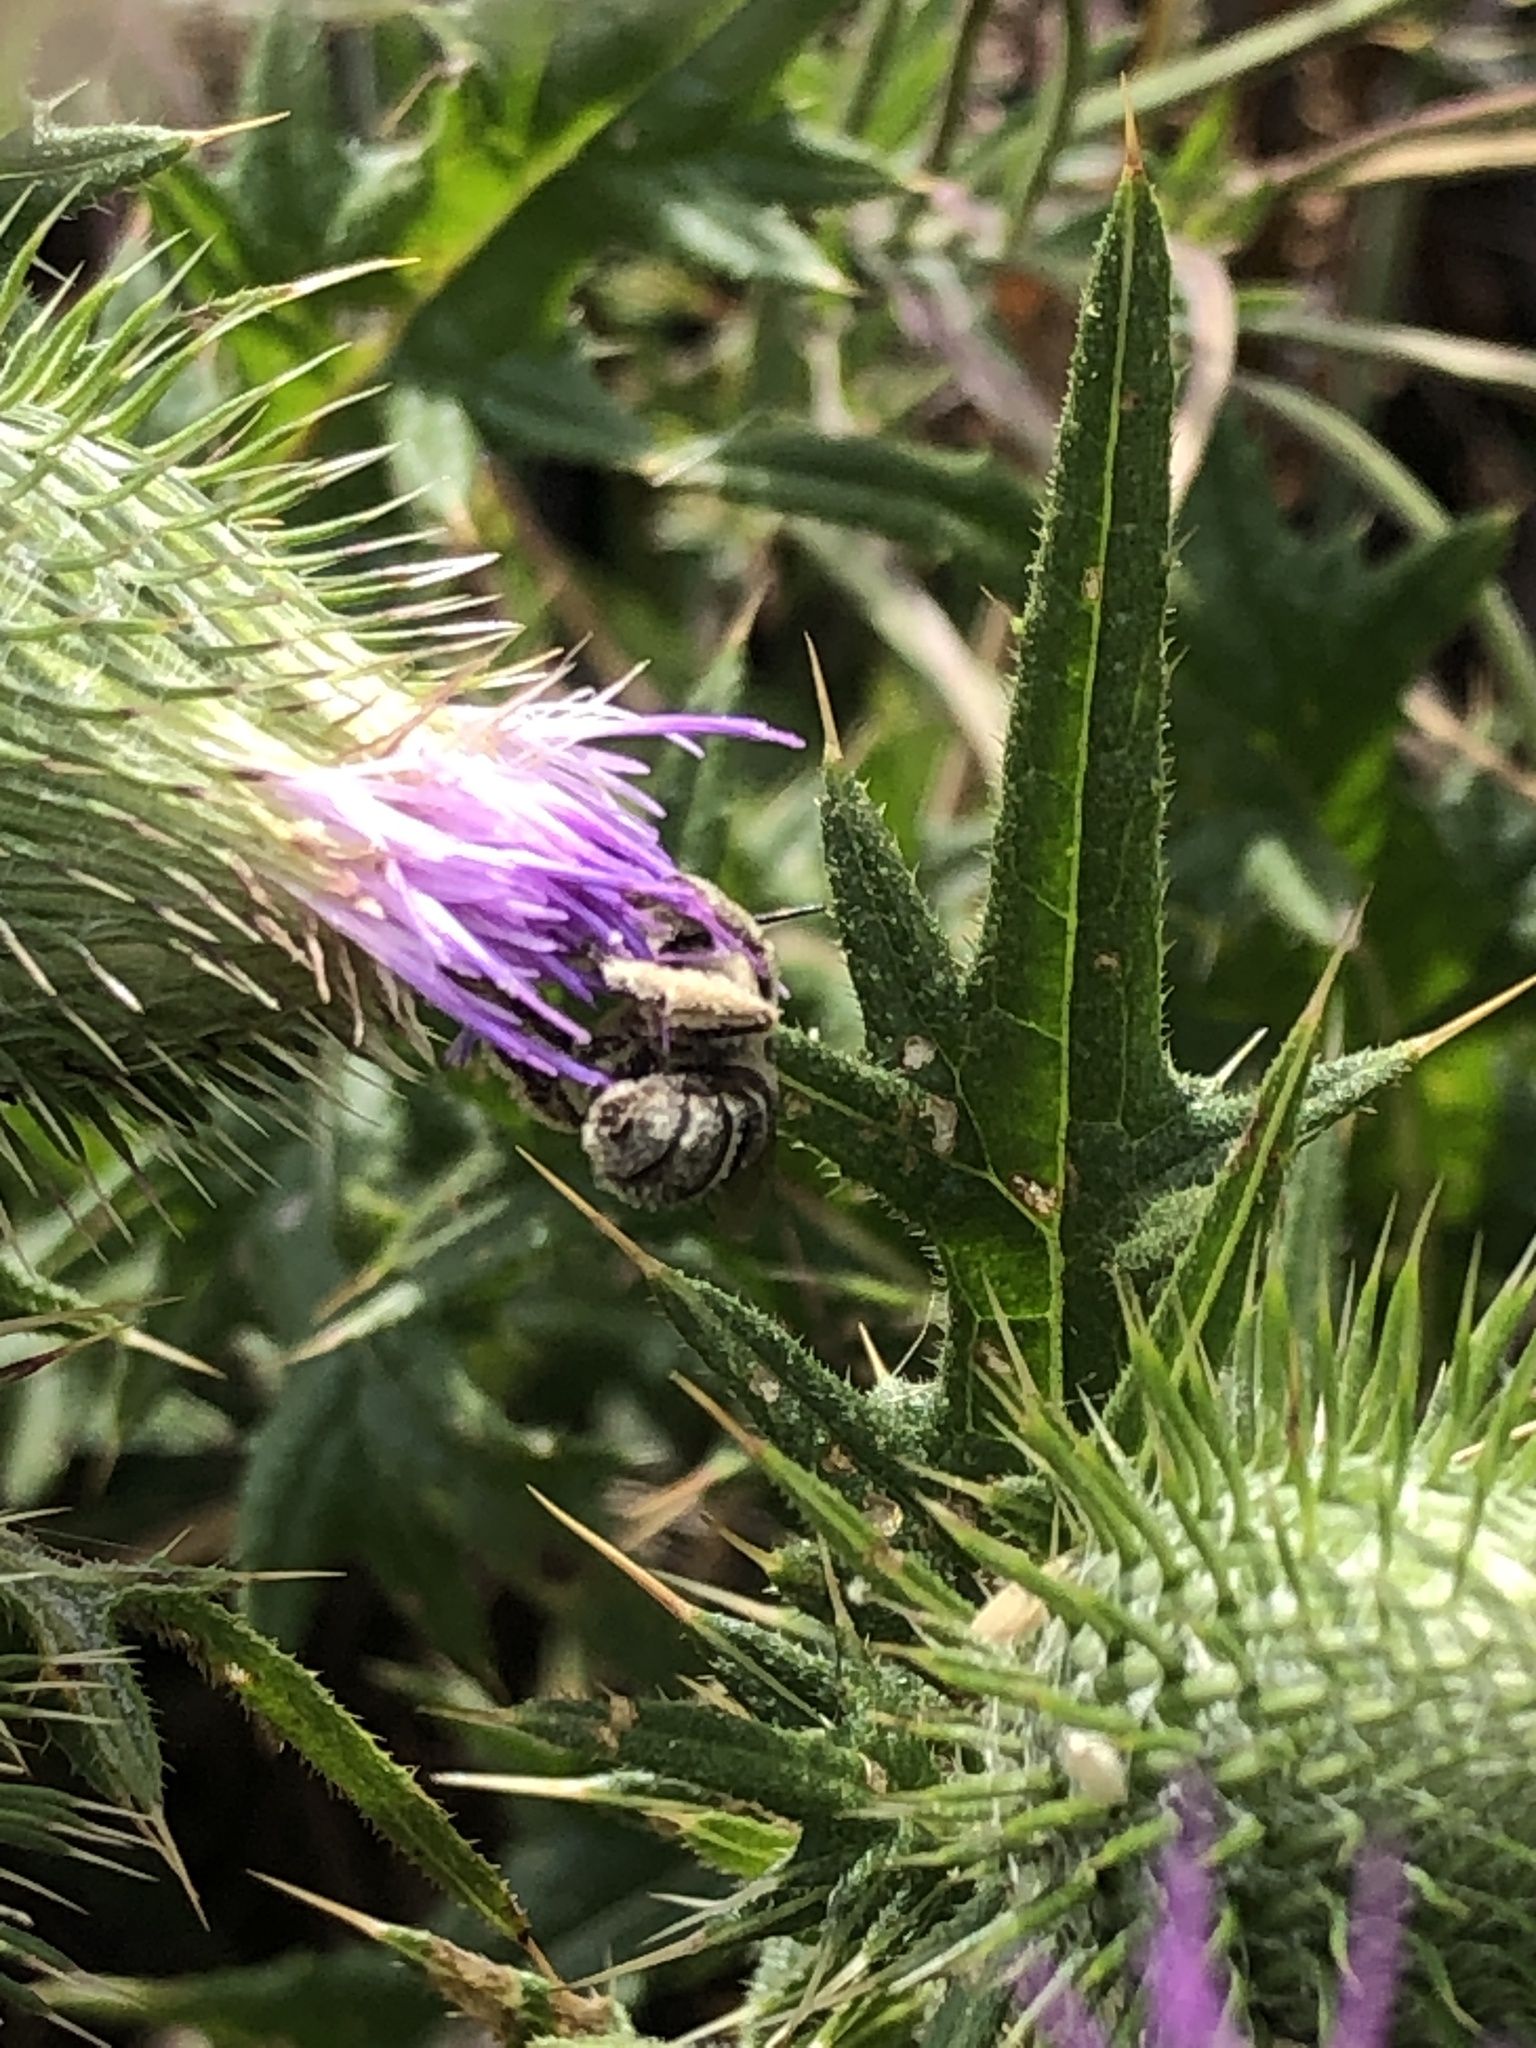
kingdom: Animalia
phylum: Arthropoda
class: Insecta
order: Hymenoptera
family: Apidae
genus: Anthophora
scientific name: Anthophora bimaculata
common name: Green-eyed flower bee
